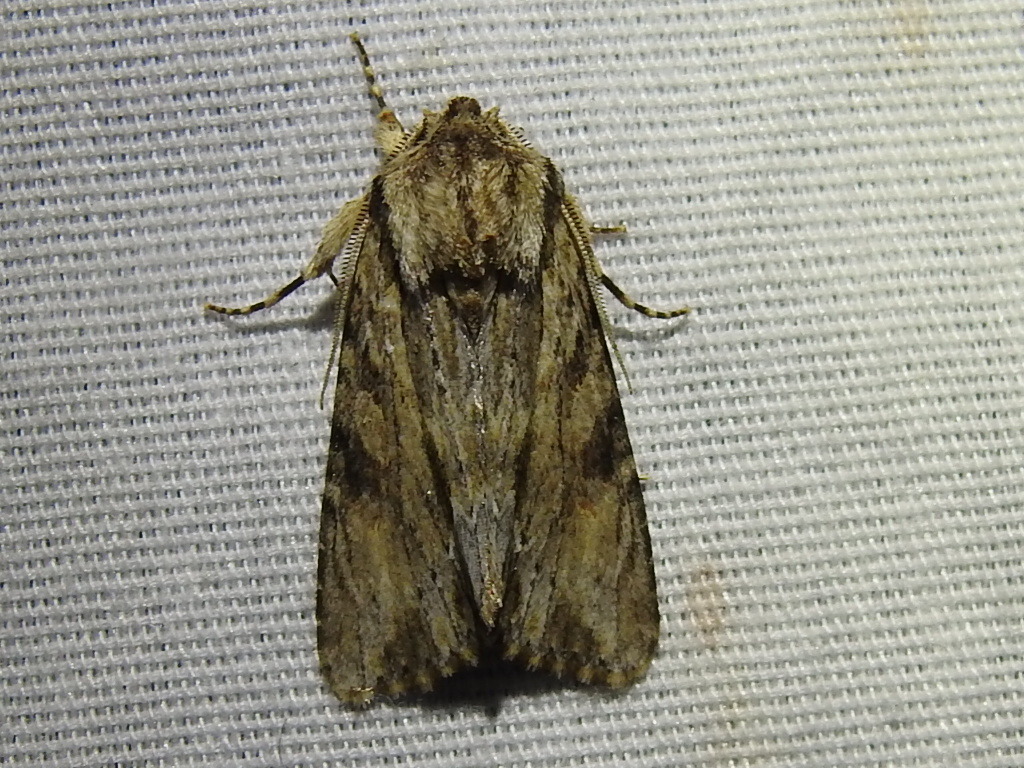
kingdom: Animalia
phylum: Arthropoda
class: Insecta
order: Lepidoptera
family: Noctuidae
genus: Achatia
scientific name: Achatia mucens
